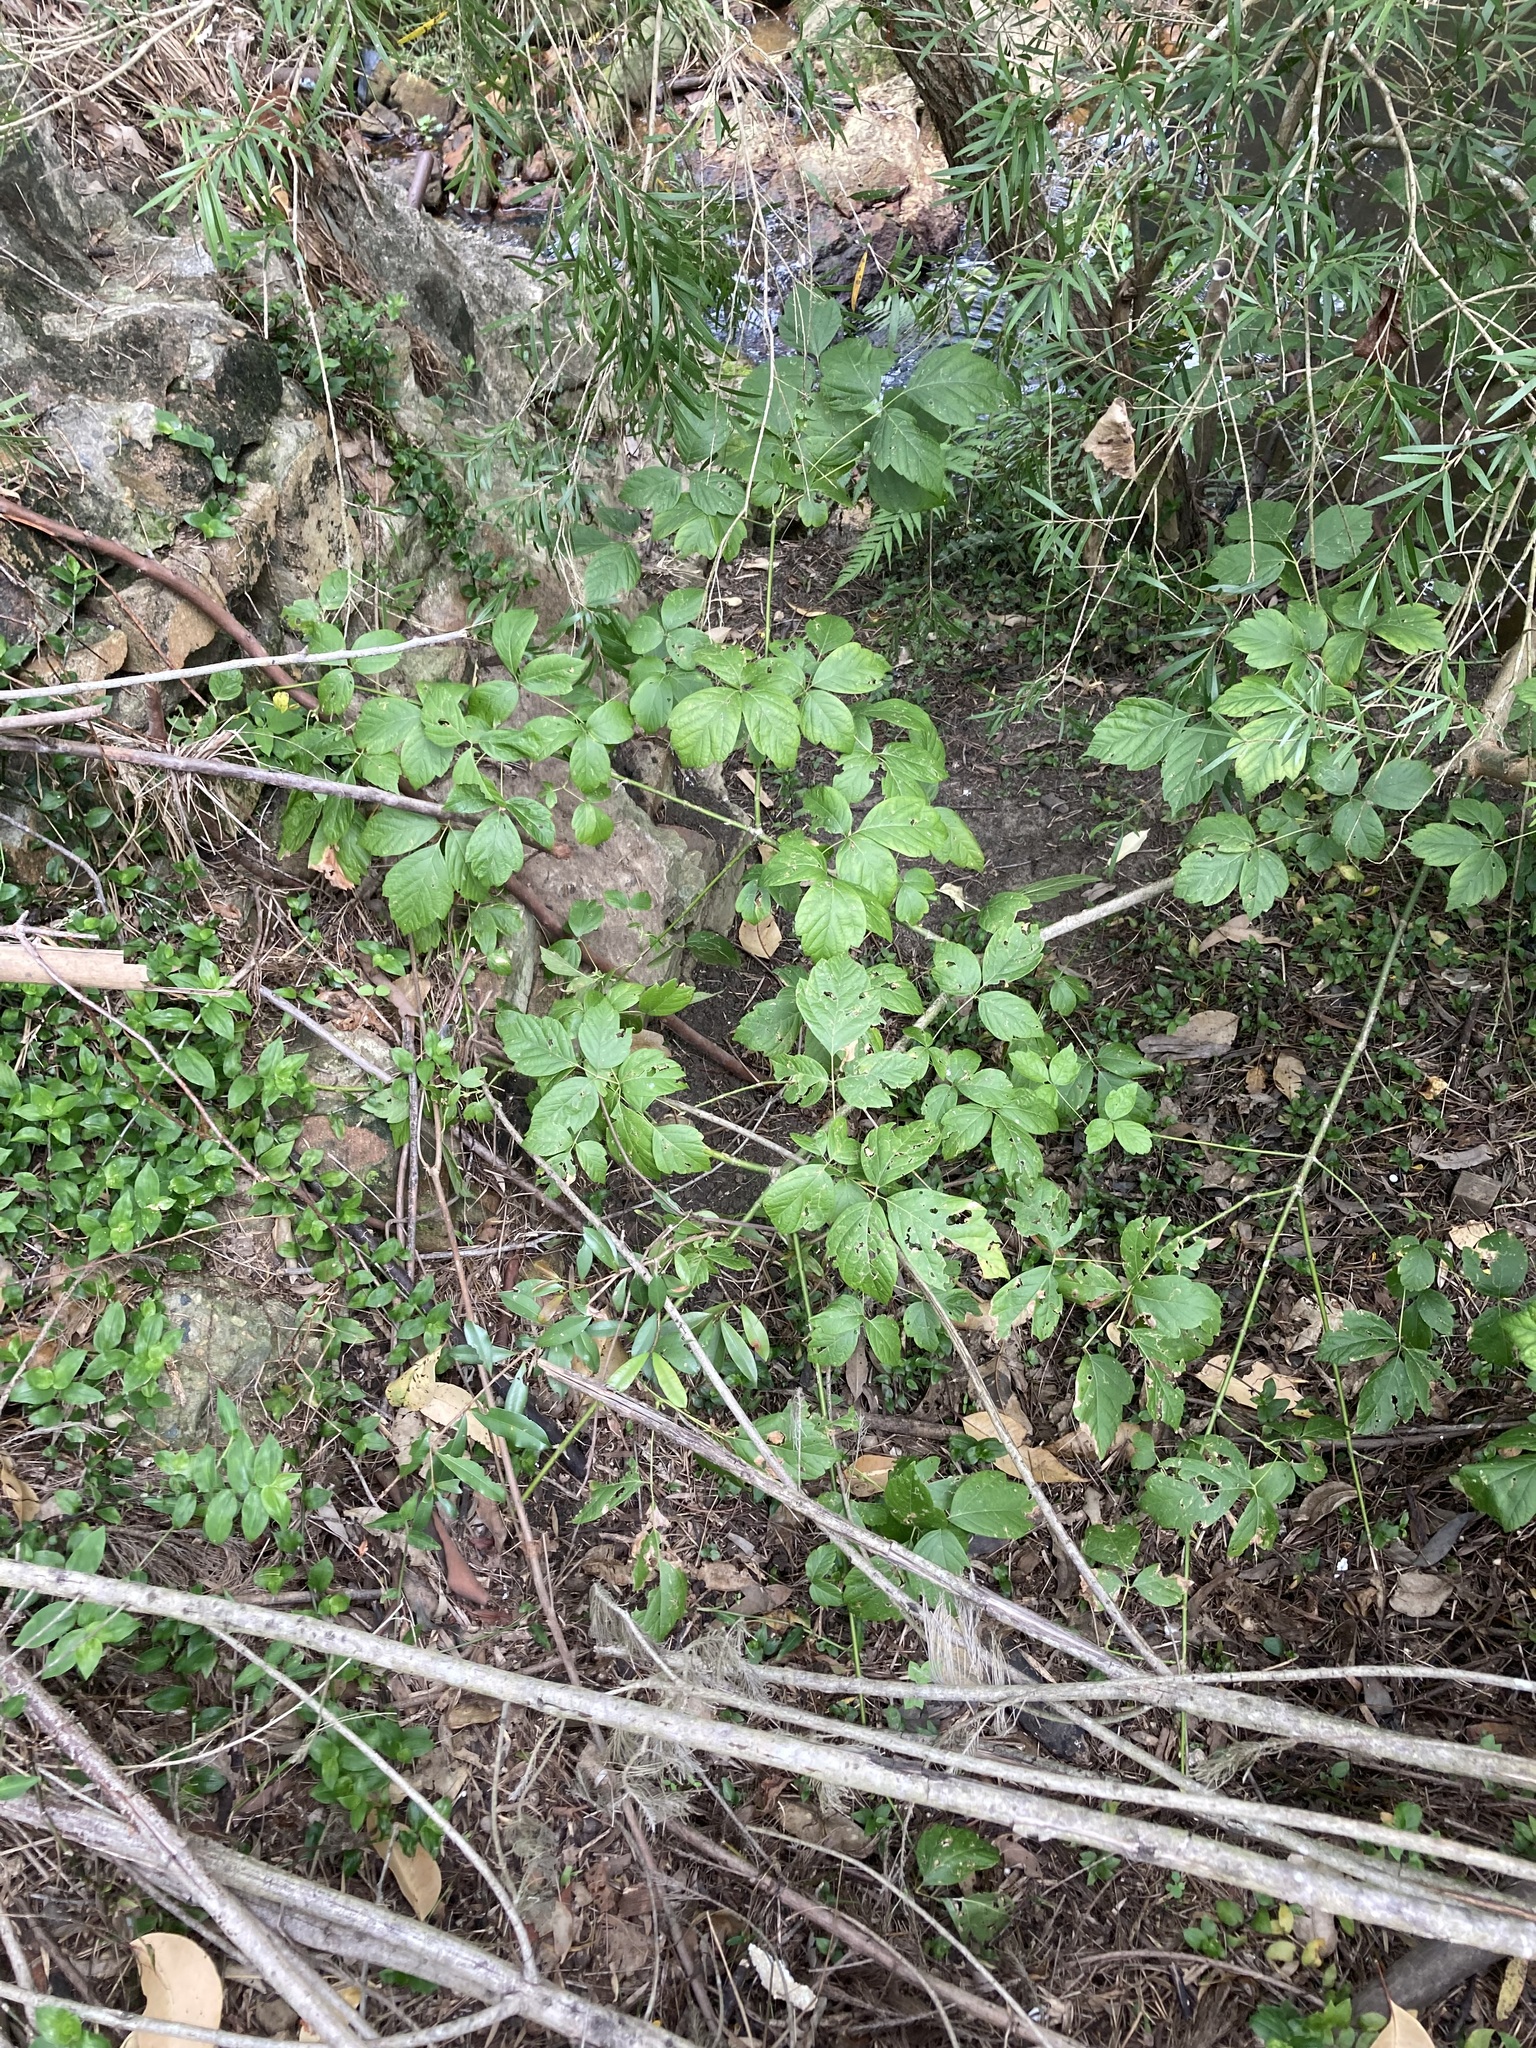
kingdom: Plantae
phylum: Tracheophyta
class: Magnoliopsida
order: Sapindales
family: Sapindaceae
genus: Acer
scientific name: Acer negundo
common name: Ashleaf maple
